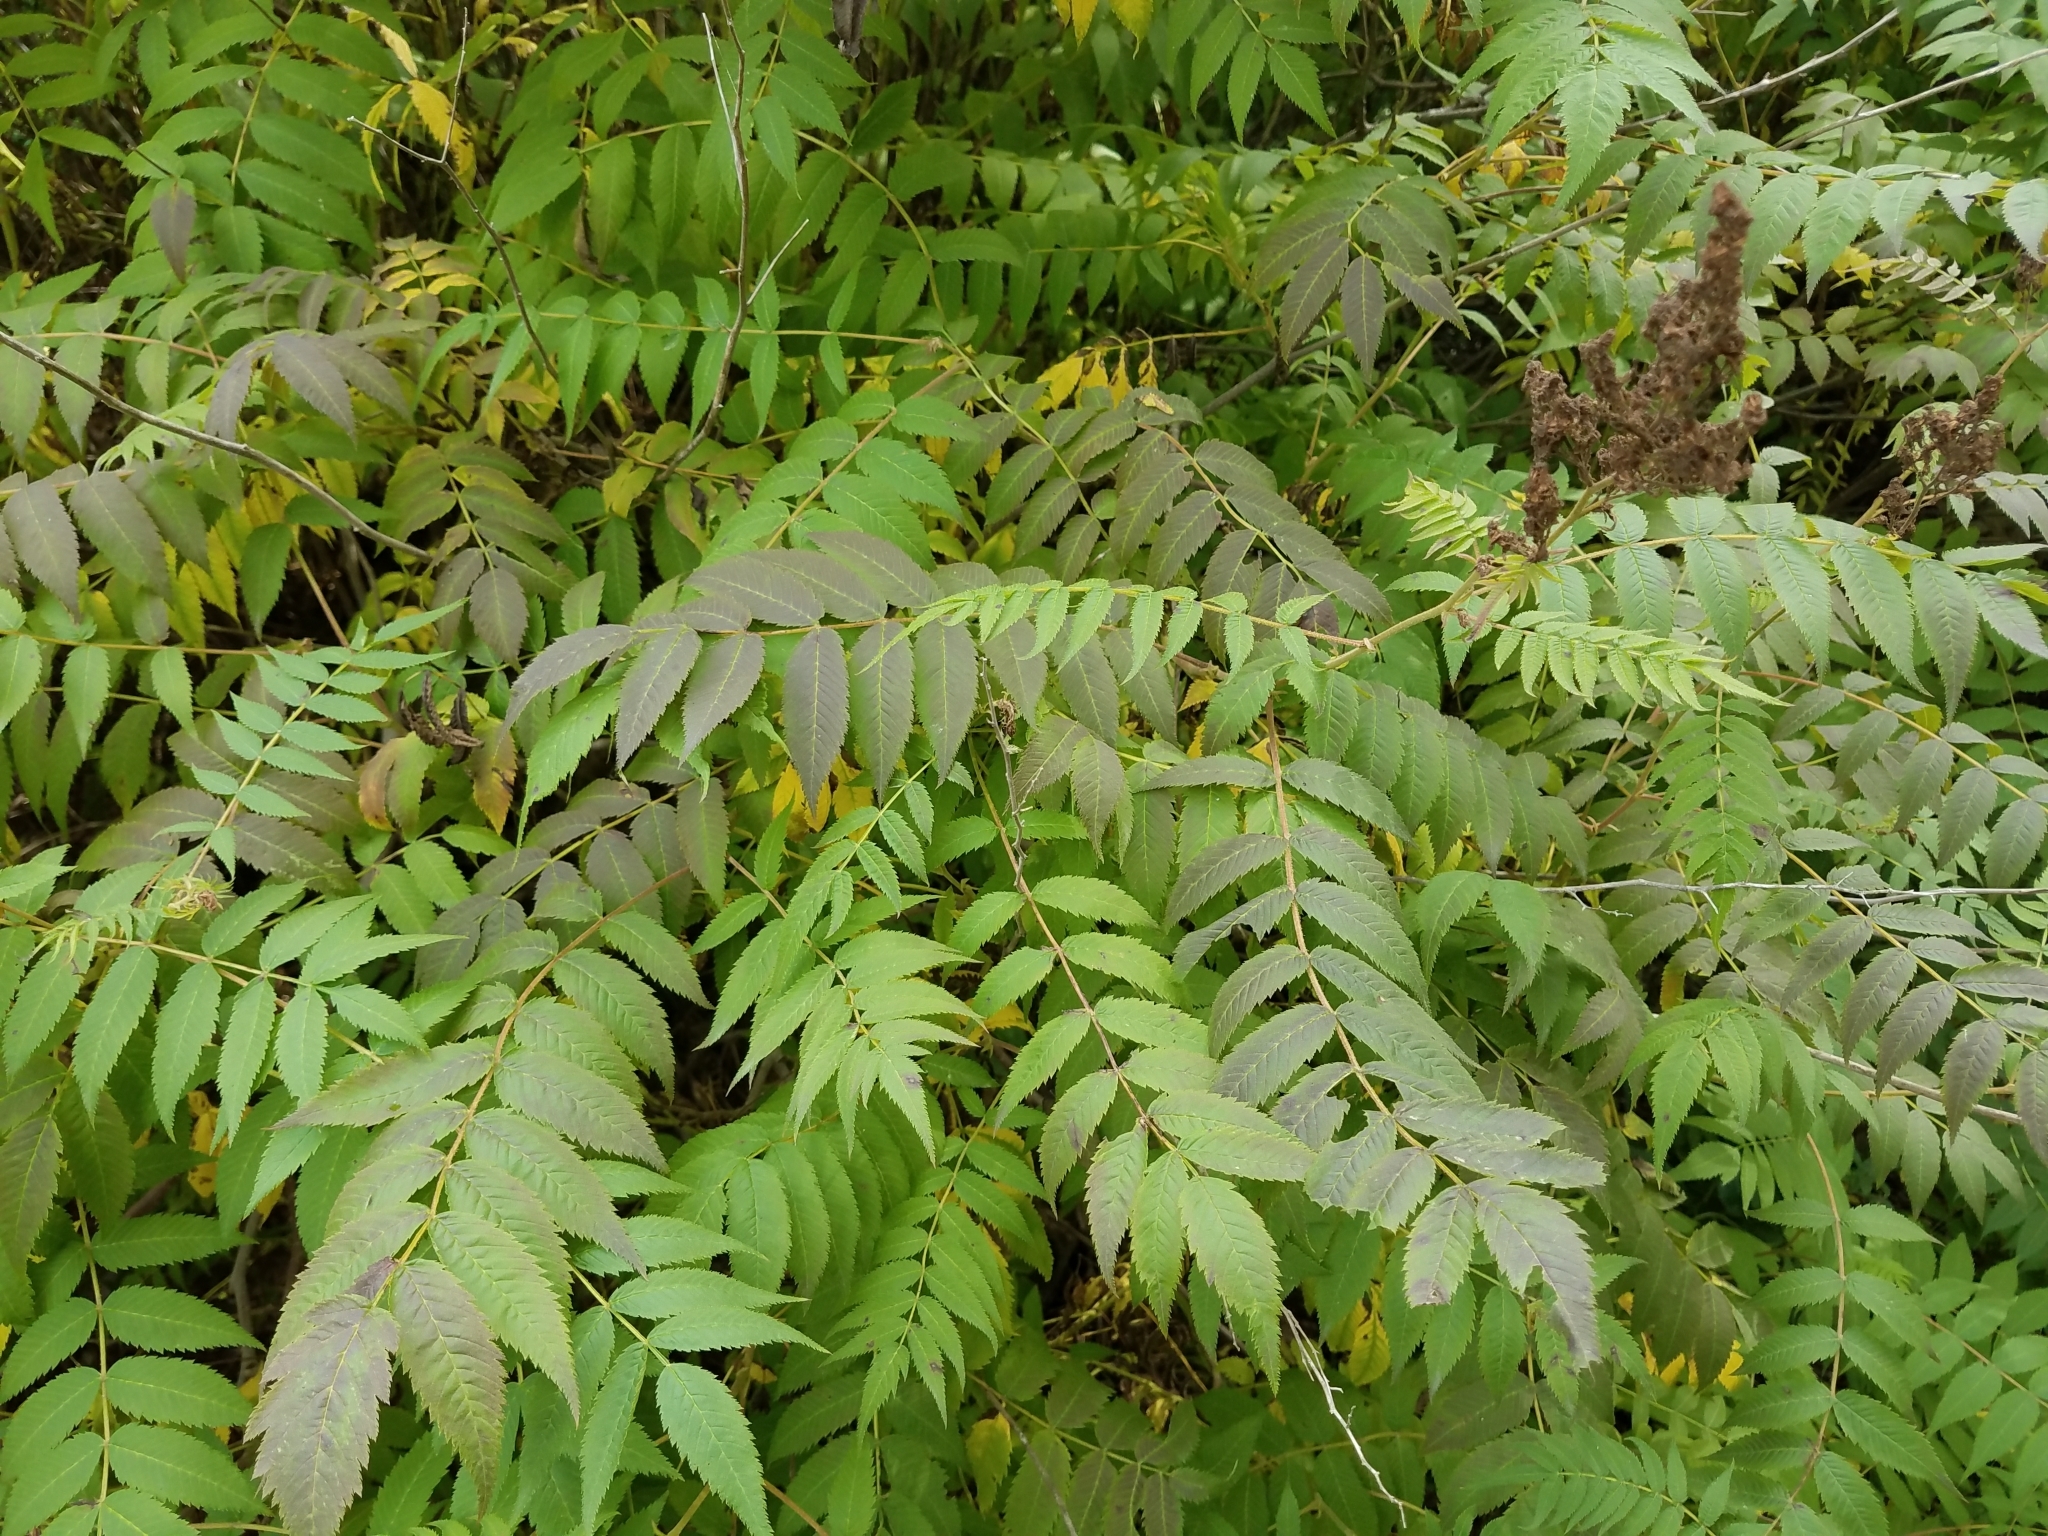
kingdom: Plantae
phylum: Tracheophyta
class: Magnoliopsida
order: Rosales
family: Rosaceae
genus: Sorbaria
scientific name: Sorbaria sorbifolia
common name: False spiraea
